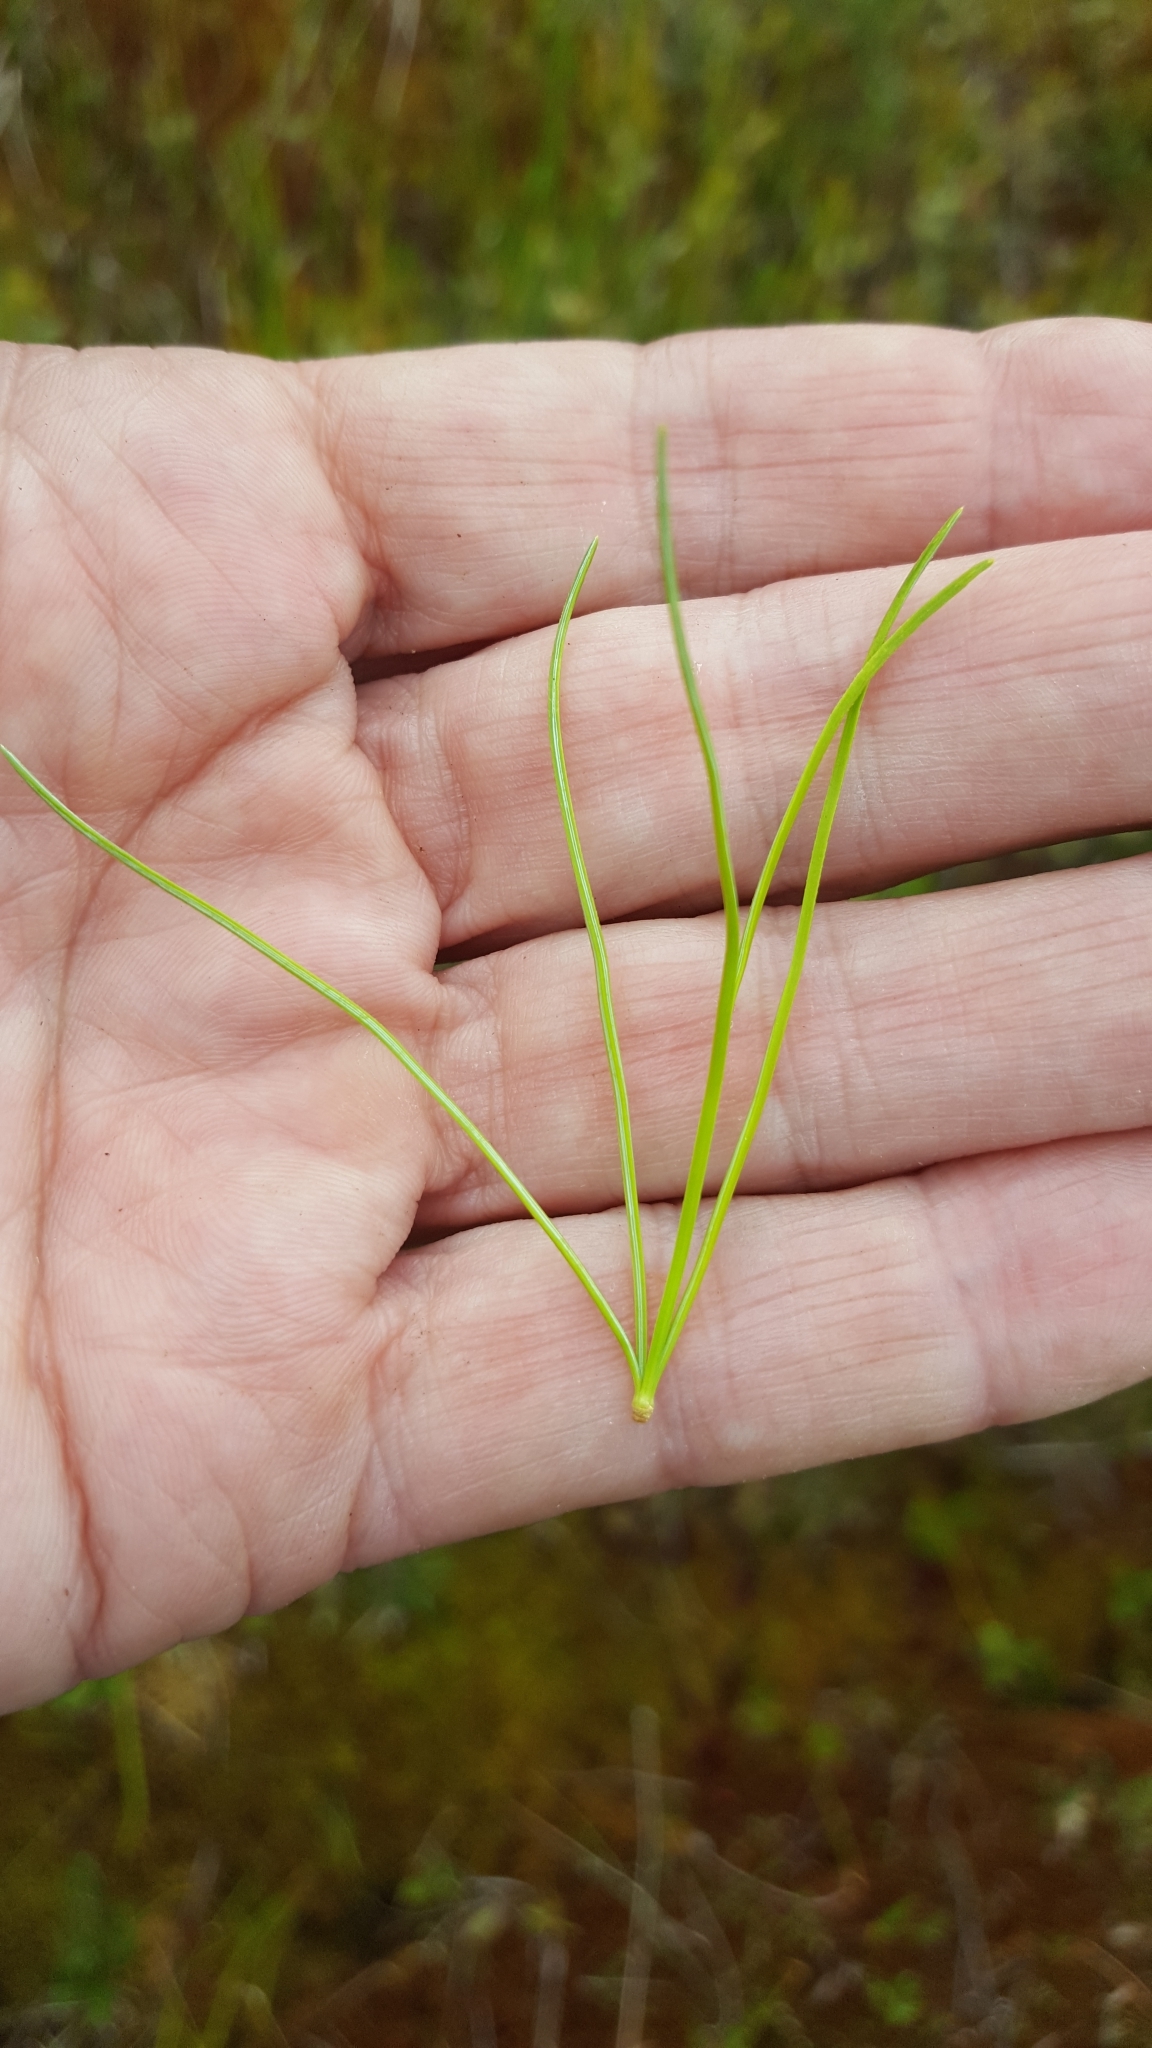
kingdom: Plantae
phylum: Tracheophyta
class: Pinopsida
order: Pinales
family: Pinaceae
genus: Pinus
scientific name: Pinus strobus
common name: Weymouth pine
